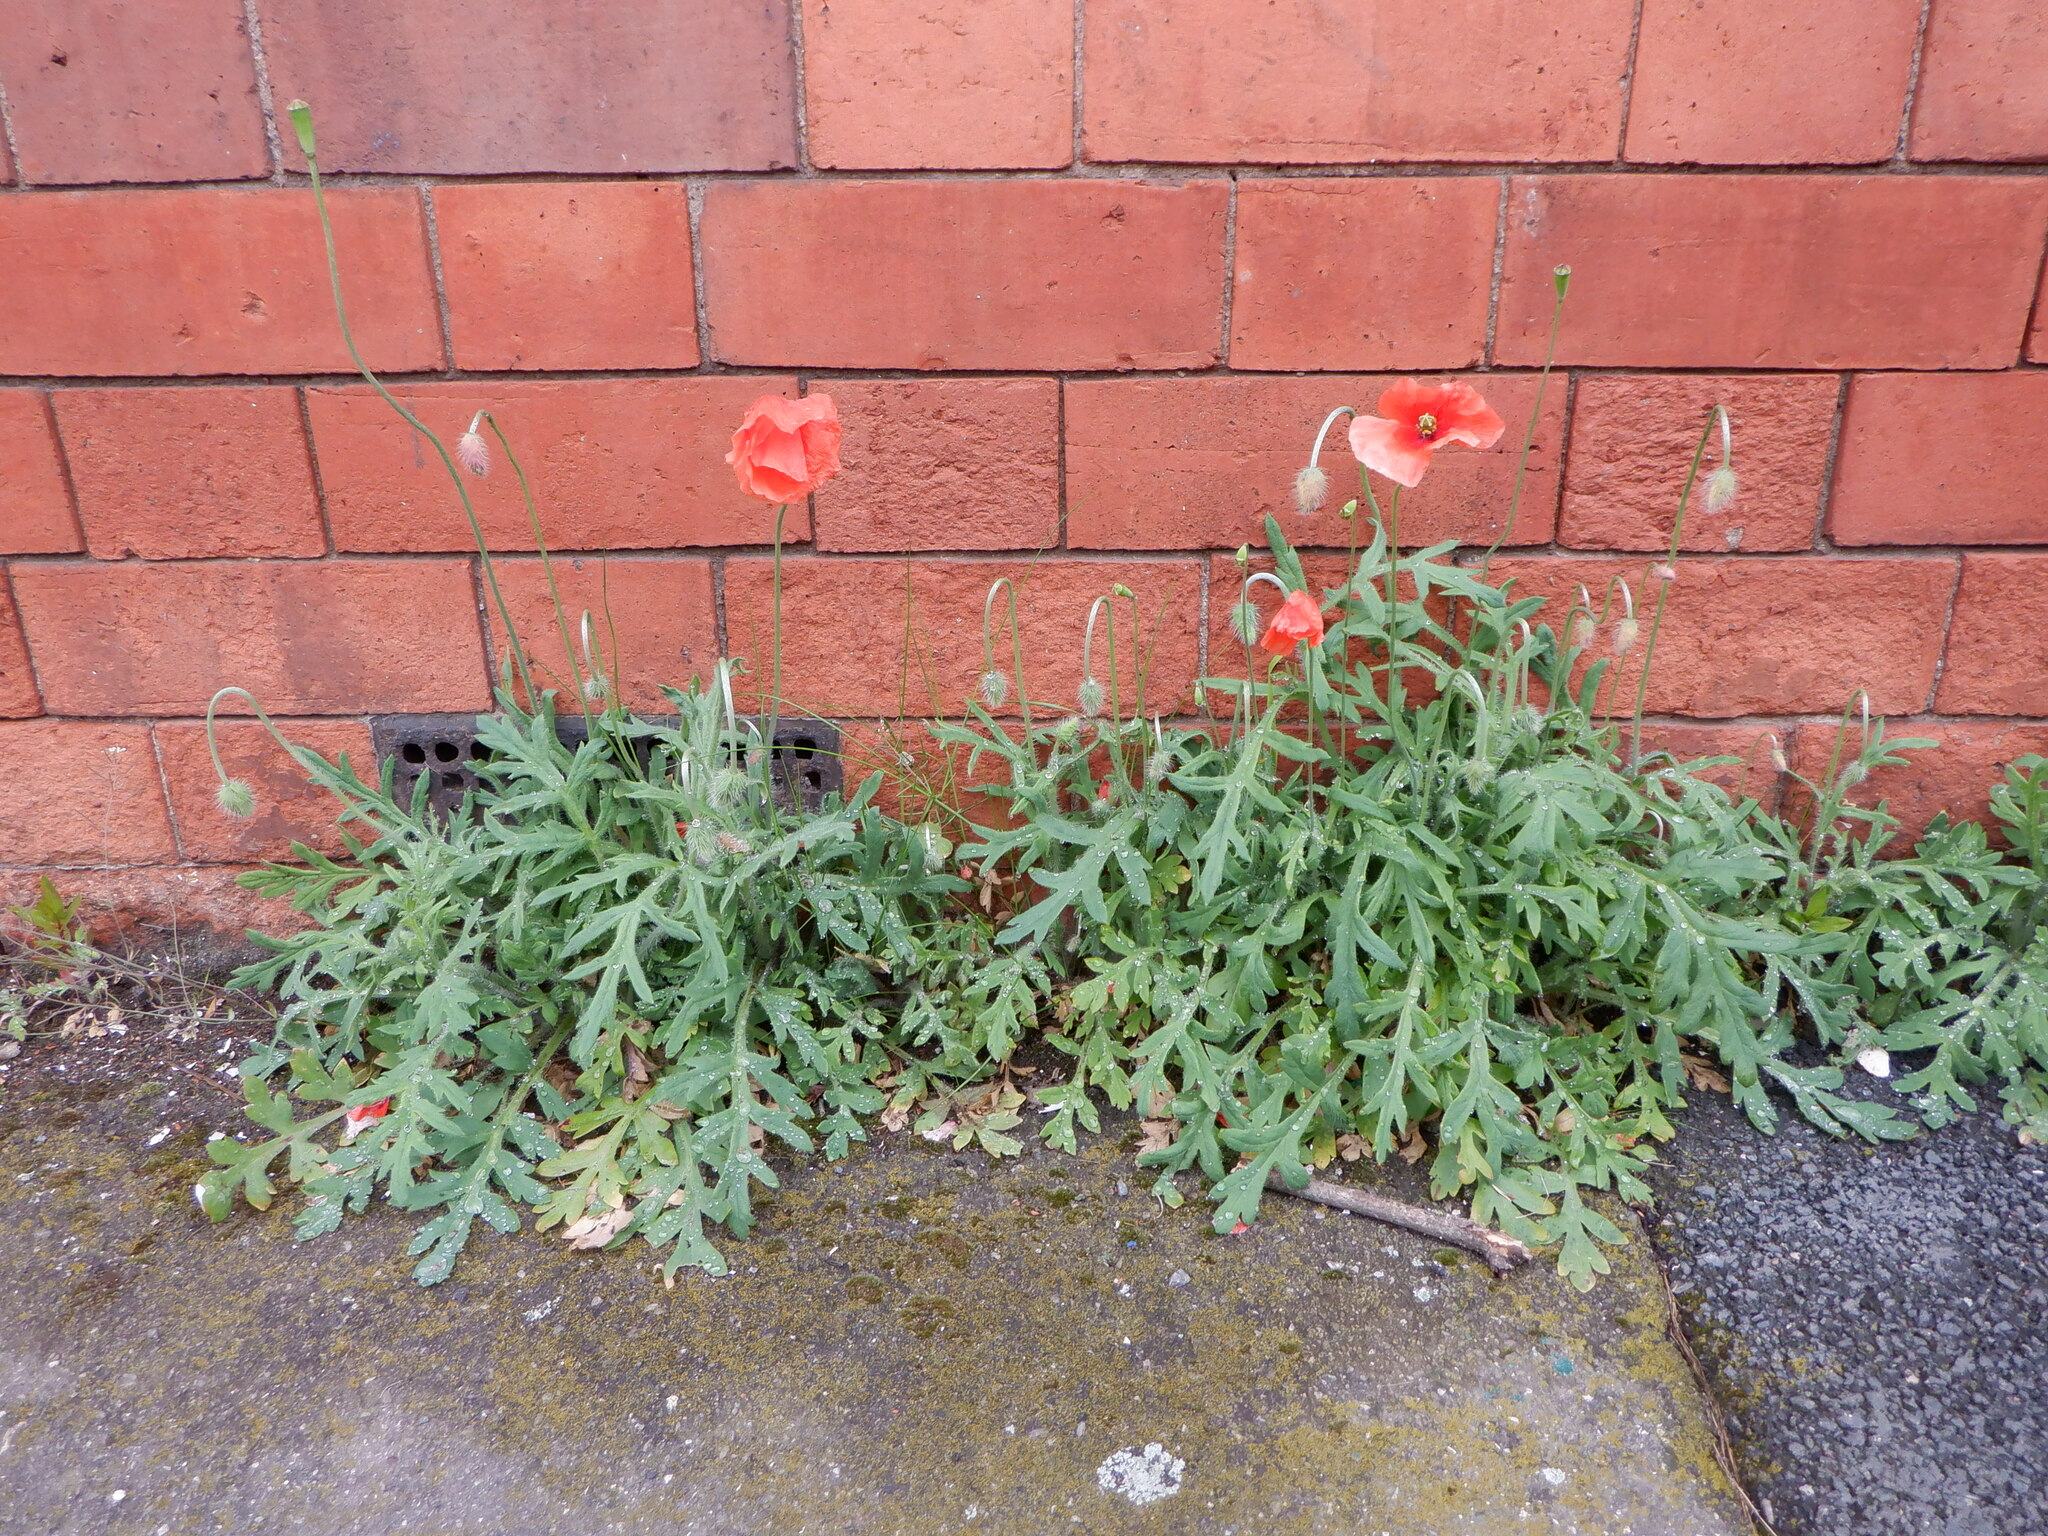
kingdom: Plantae
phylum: Tracheophyta
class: Magnoliopsida
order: Ranunculales
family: Papaveraceae
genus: Papaver
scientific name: Papaver dubium
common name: Long-headed poppy
